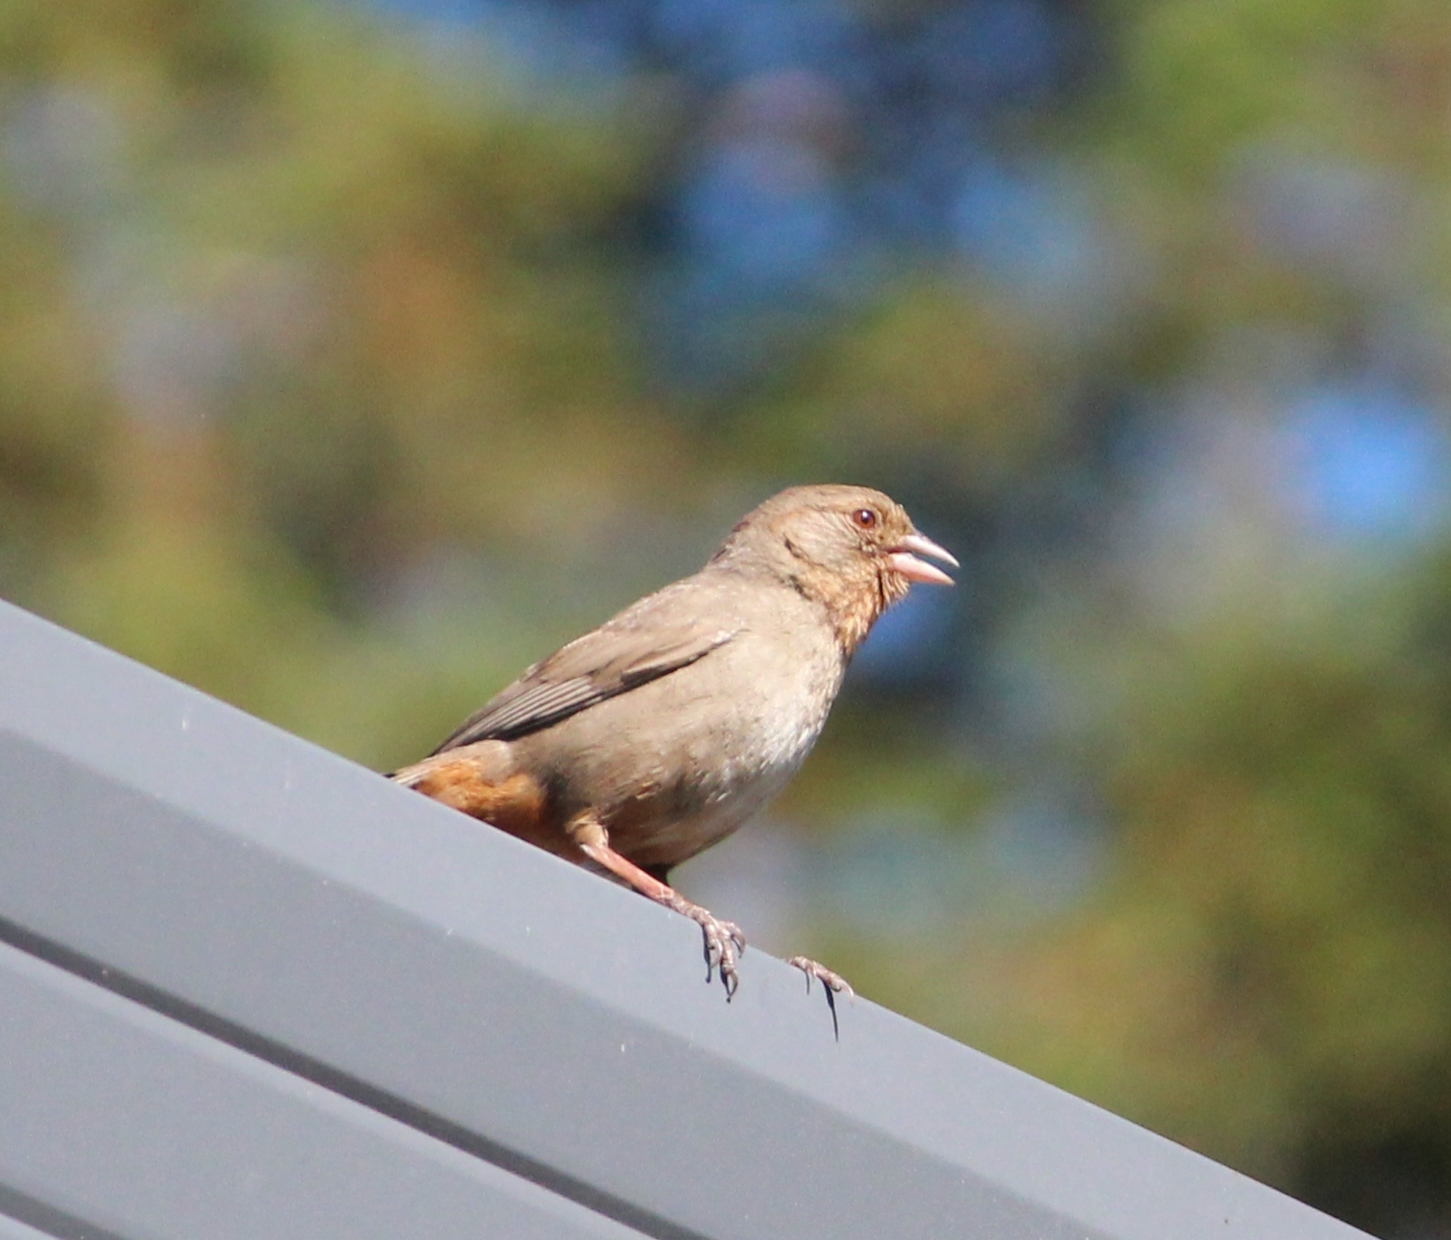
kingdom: Animalia
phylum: Chordata
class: Aves
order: Passeriformes
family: Passerellidae
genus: Melozone
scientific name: Melozone crissalis
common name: California towhee
